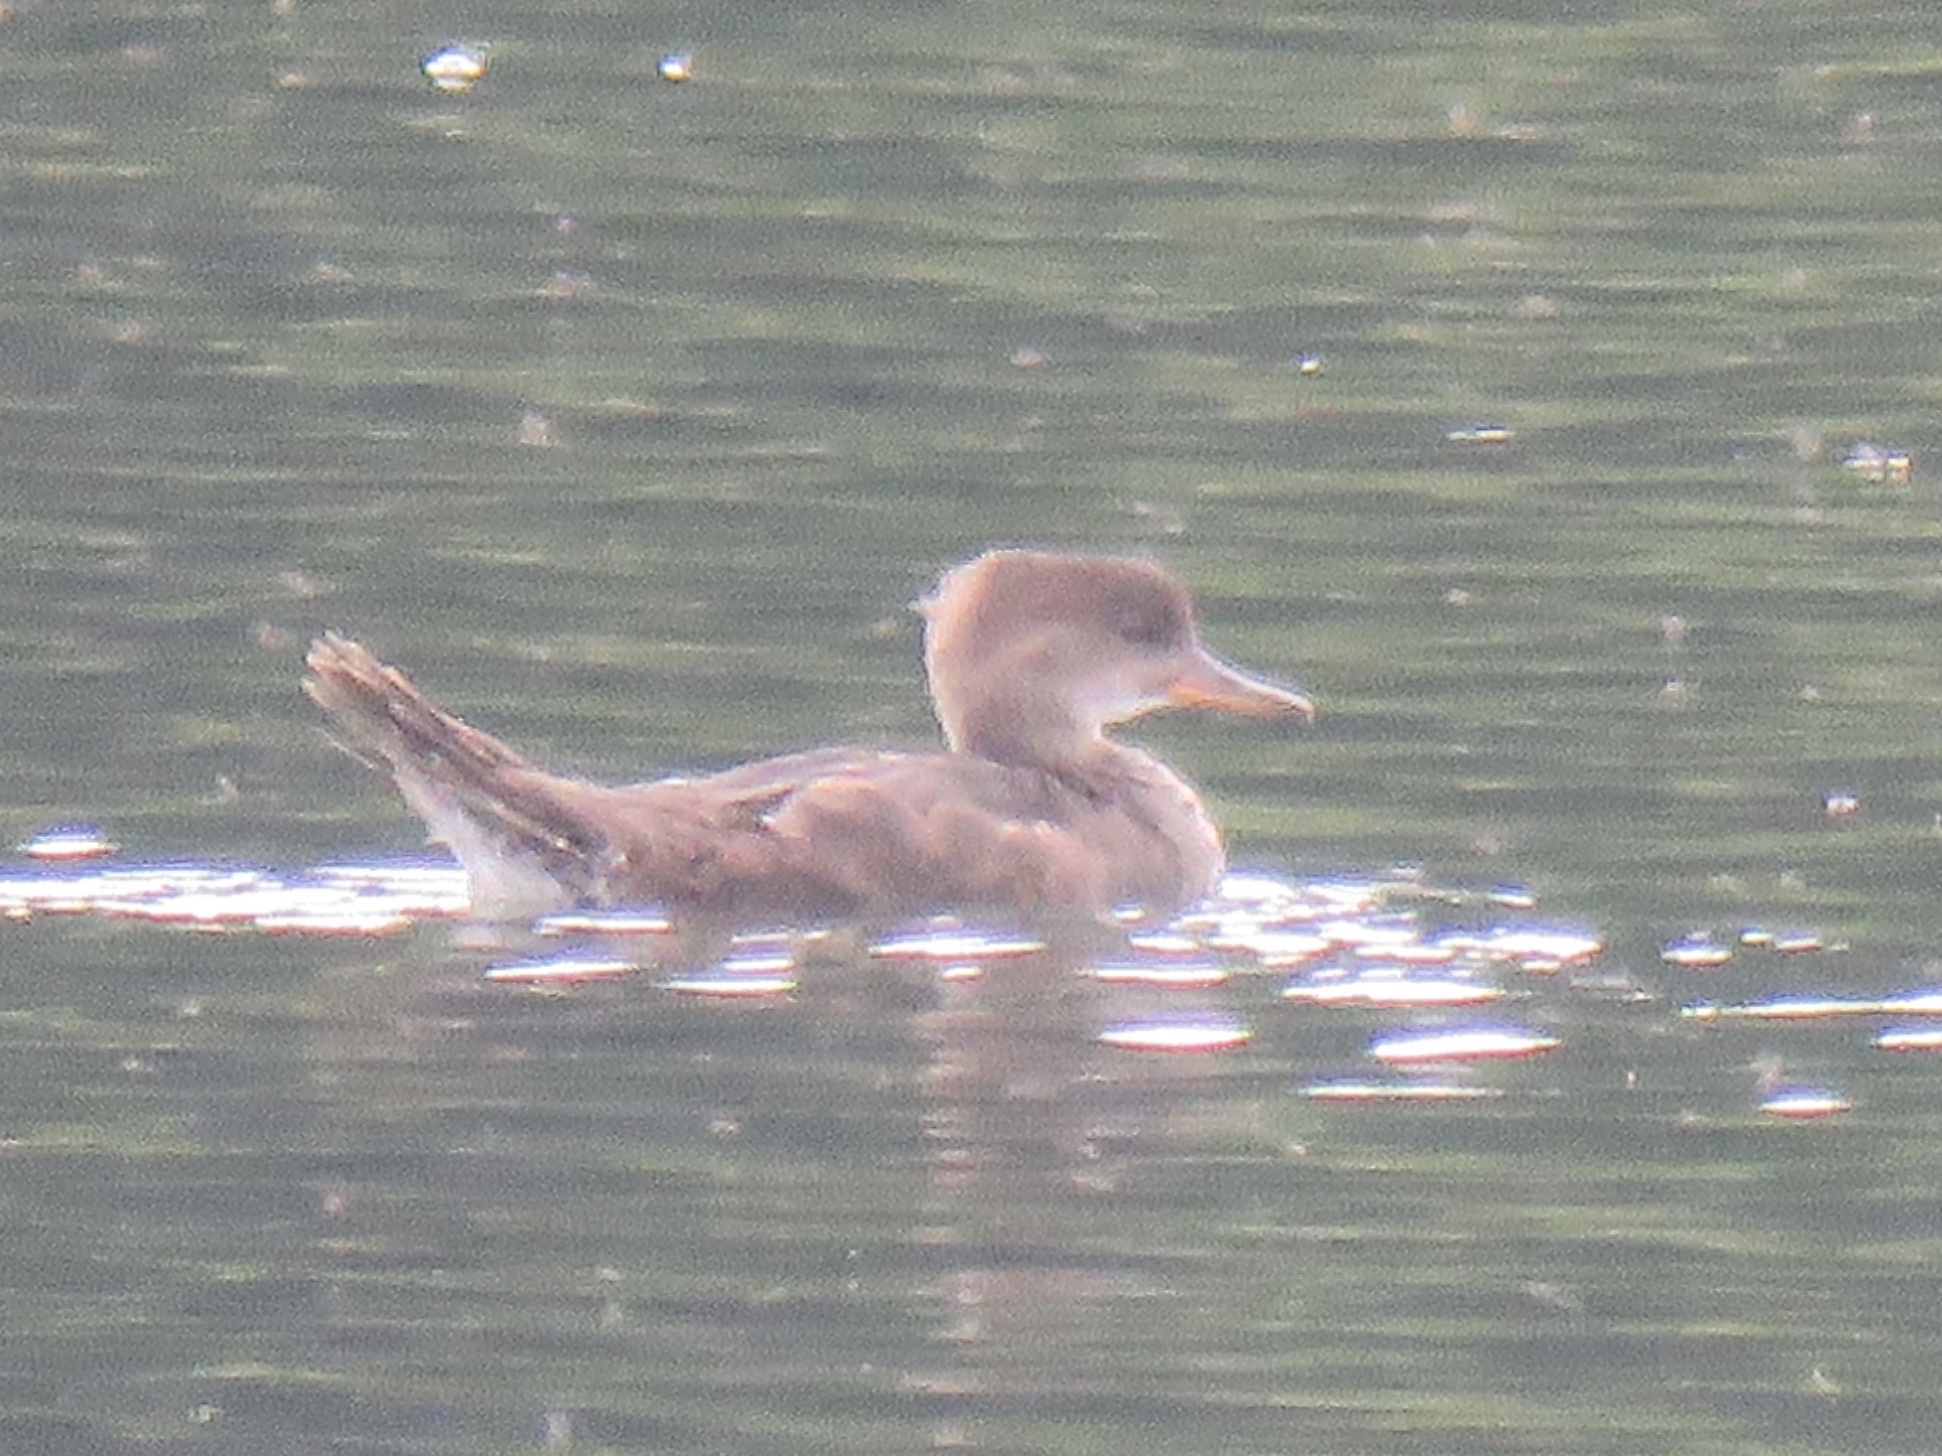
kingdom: Animalia
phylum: Chordata
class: Aves
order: Anseriformes
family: Anatidae
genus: Lophodytes
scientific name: Lophodytes cucullatus
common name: Hooded merganser
